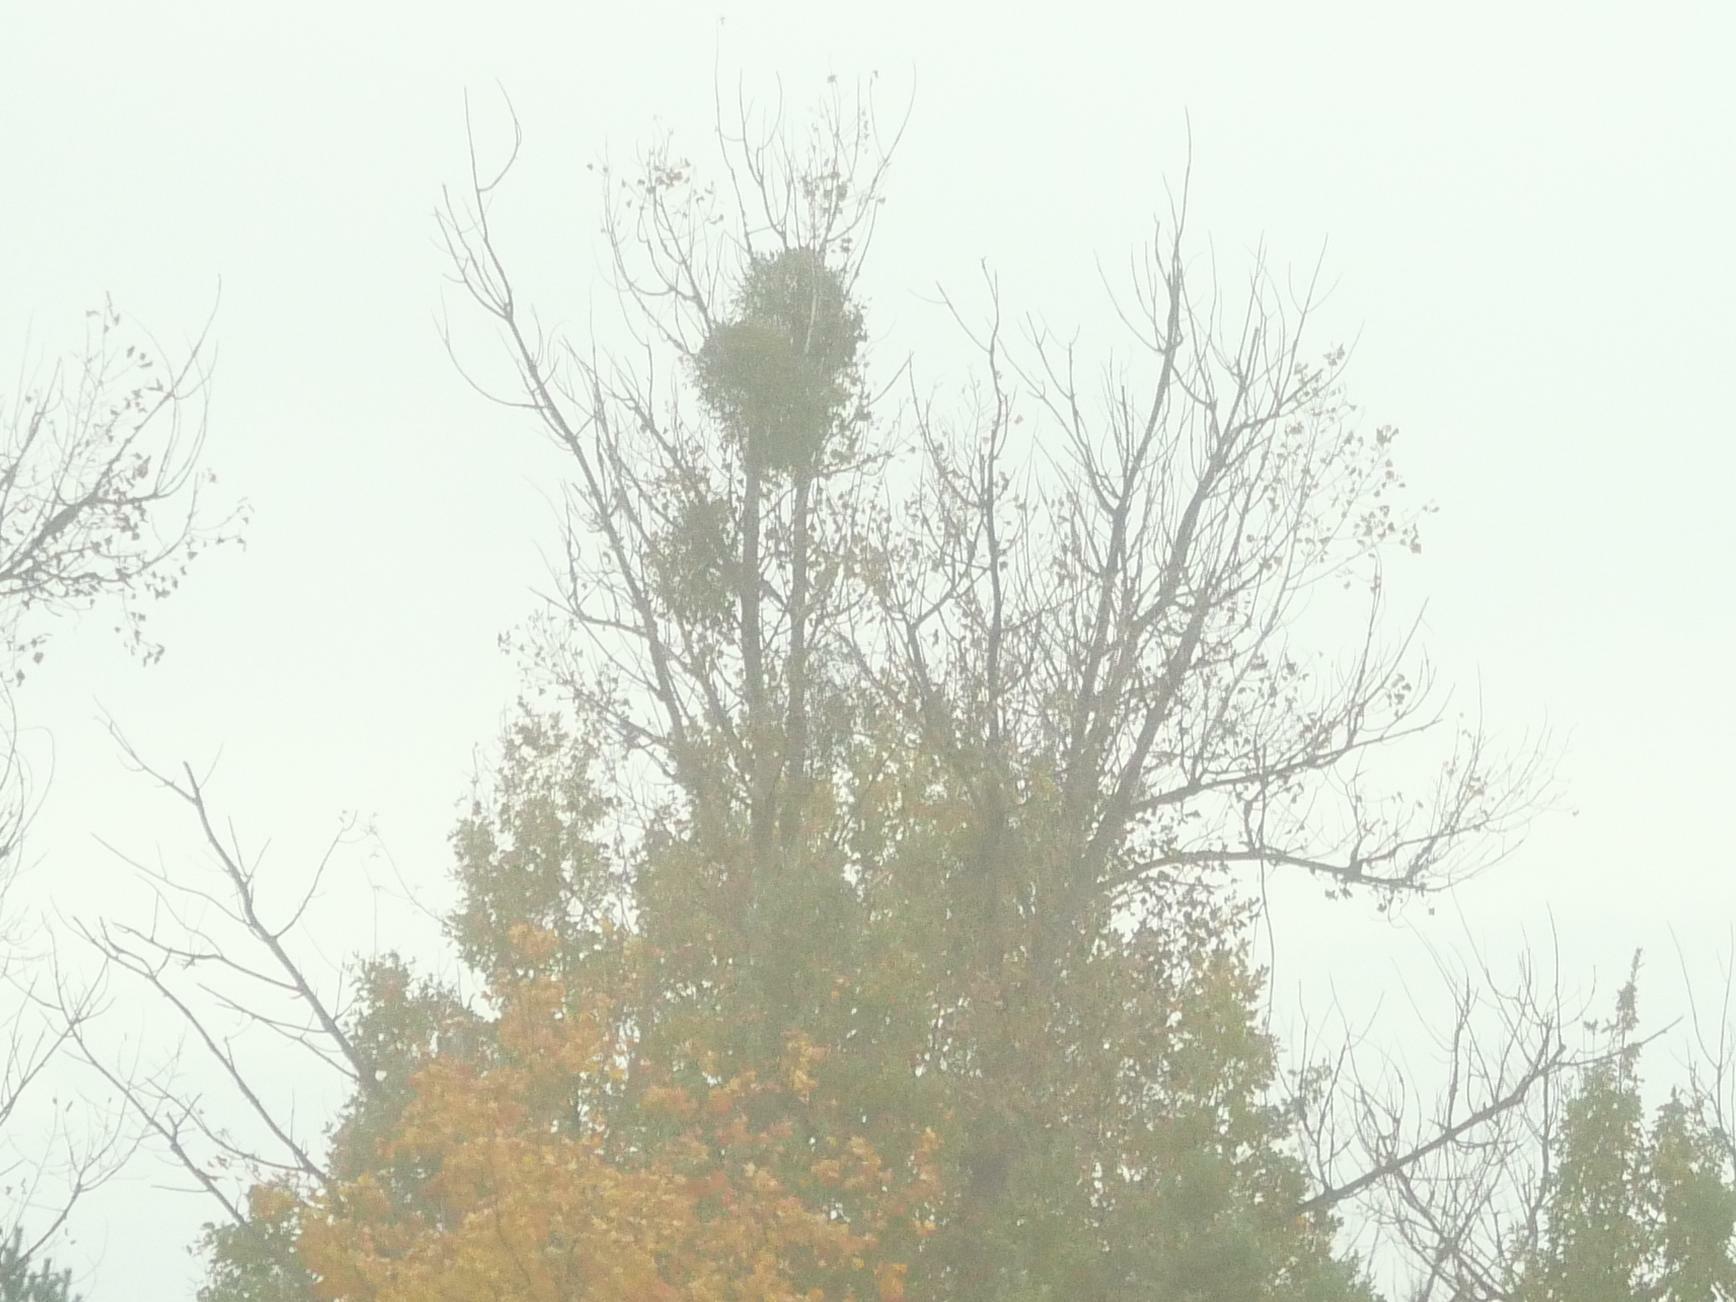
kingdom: Plantae
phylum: Tracheophyta
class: Magnoliopsida
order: Santalales
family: Viscaceae
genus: Viscum
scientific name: Viscum album
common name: Mistletoe
